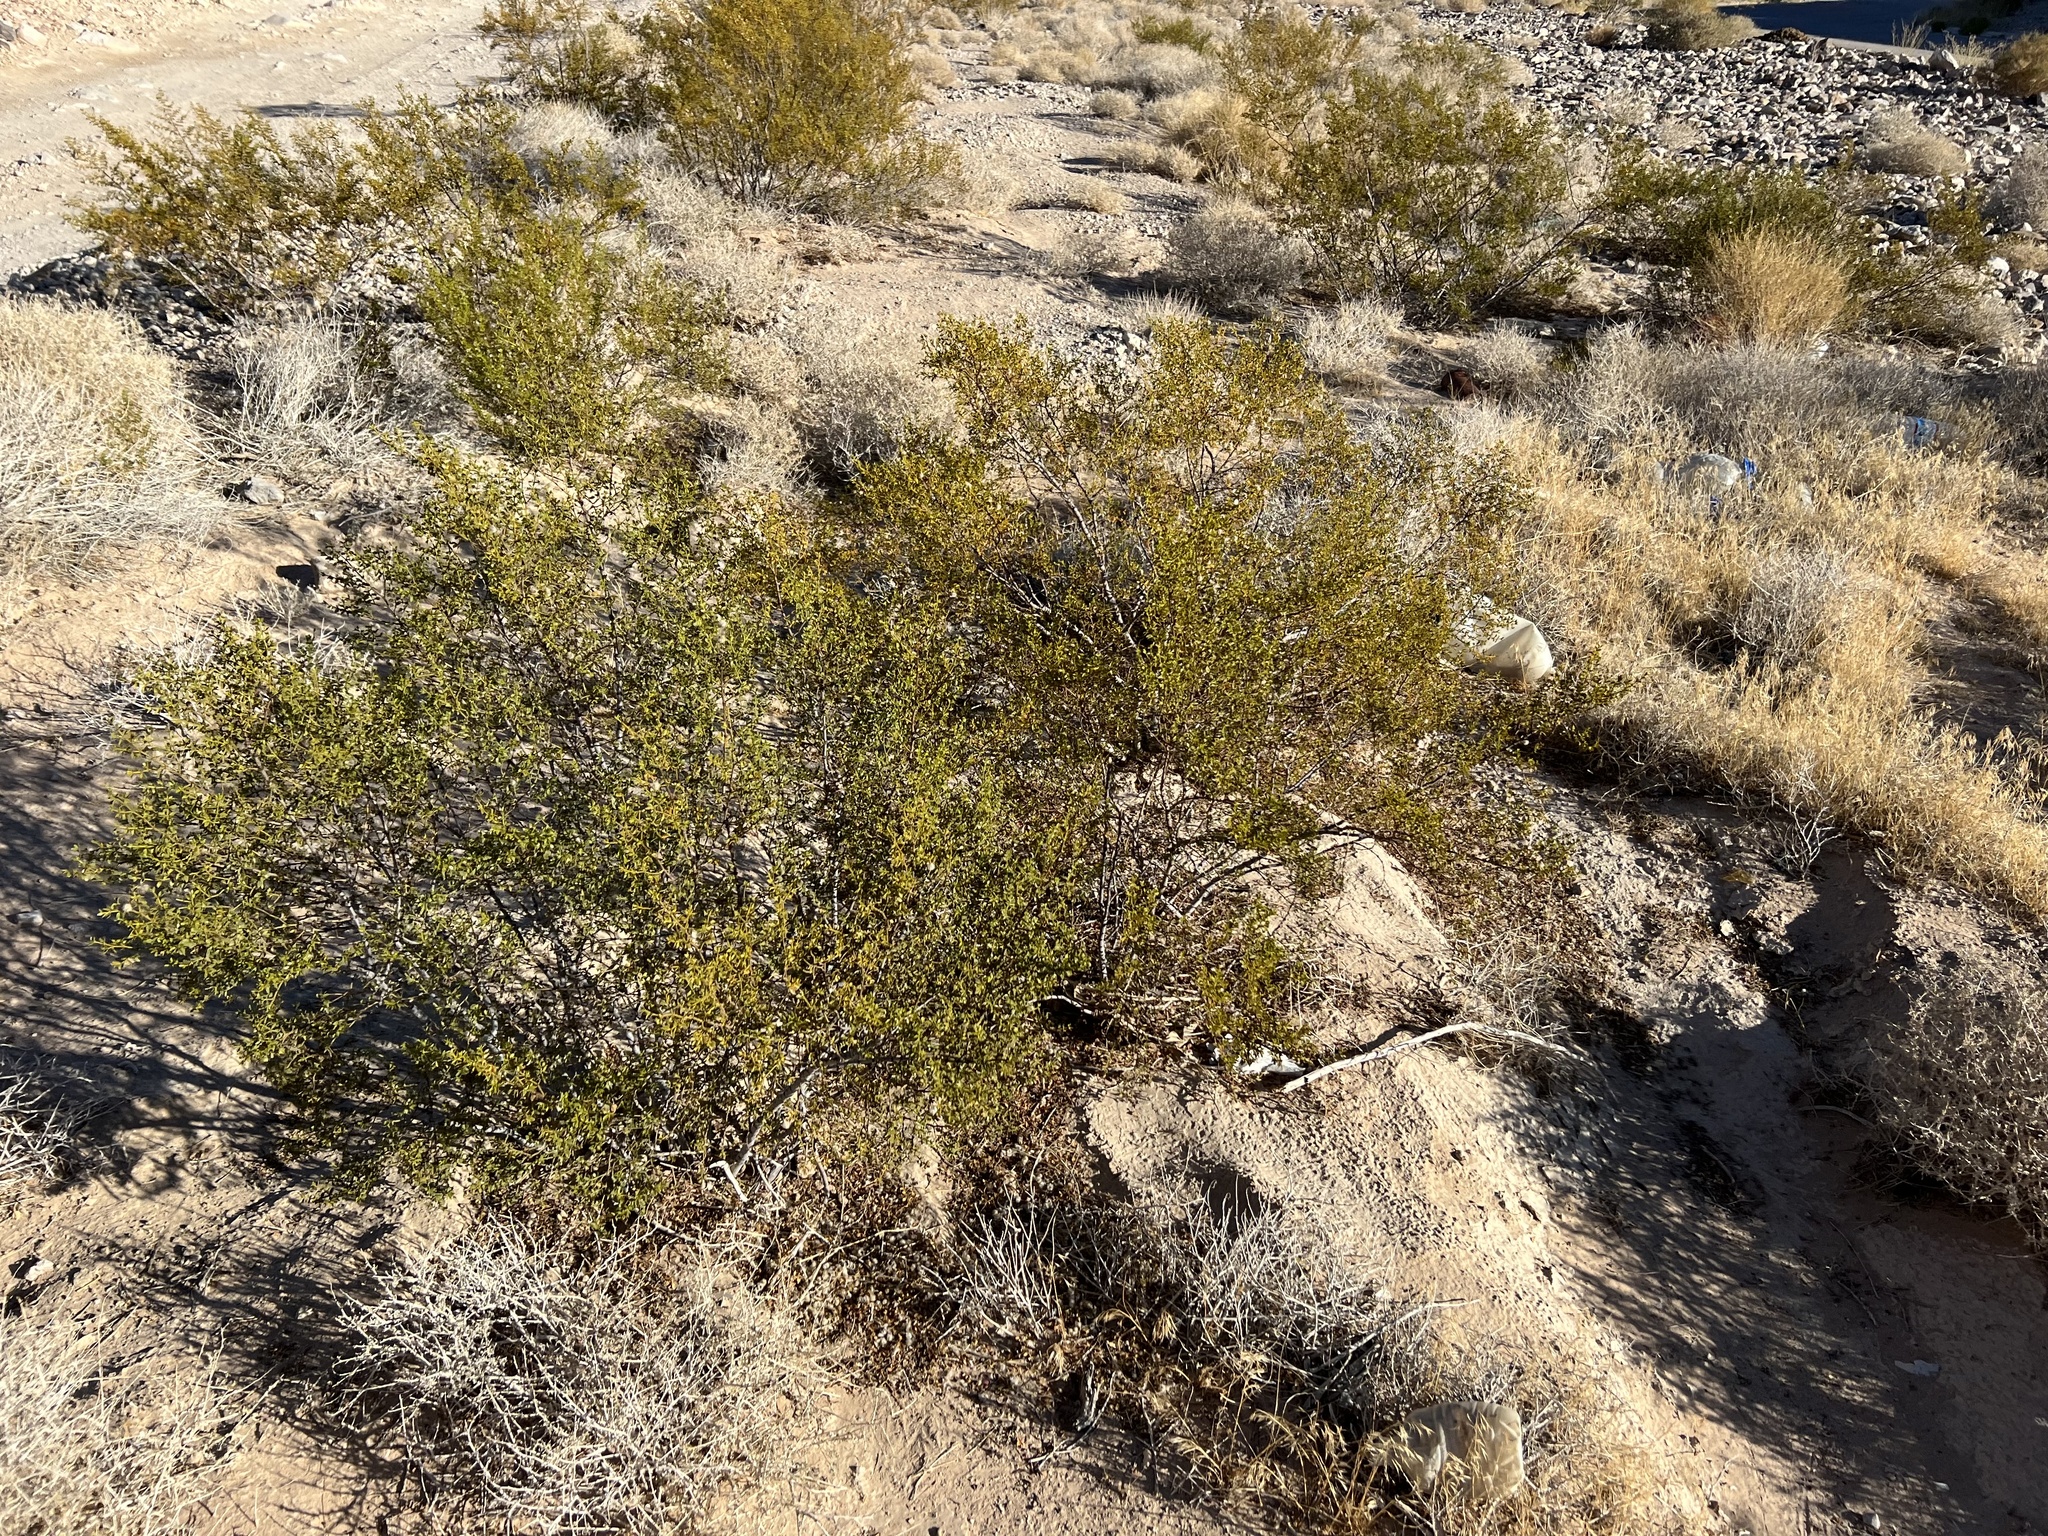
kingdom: Plantae
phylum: Tracheophyta
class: Magnoliopsida
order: Zygophyllales
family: Zygophyllaceae
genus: Larrea
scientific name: Larrea tridentata
